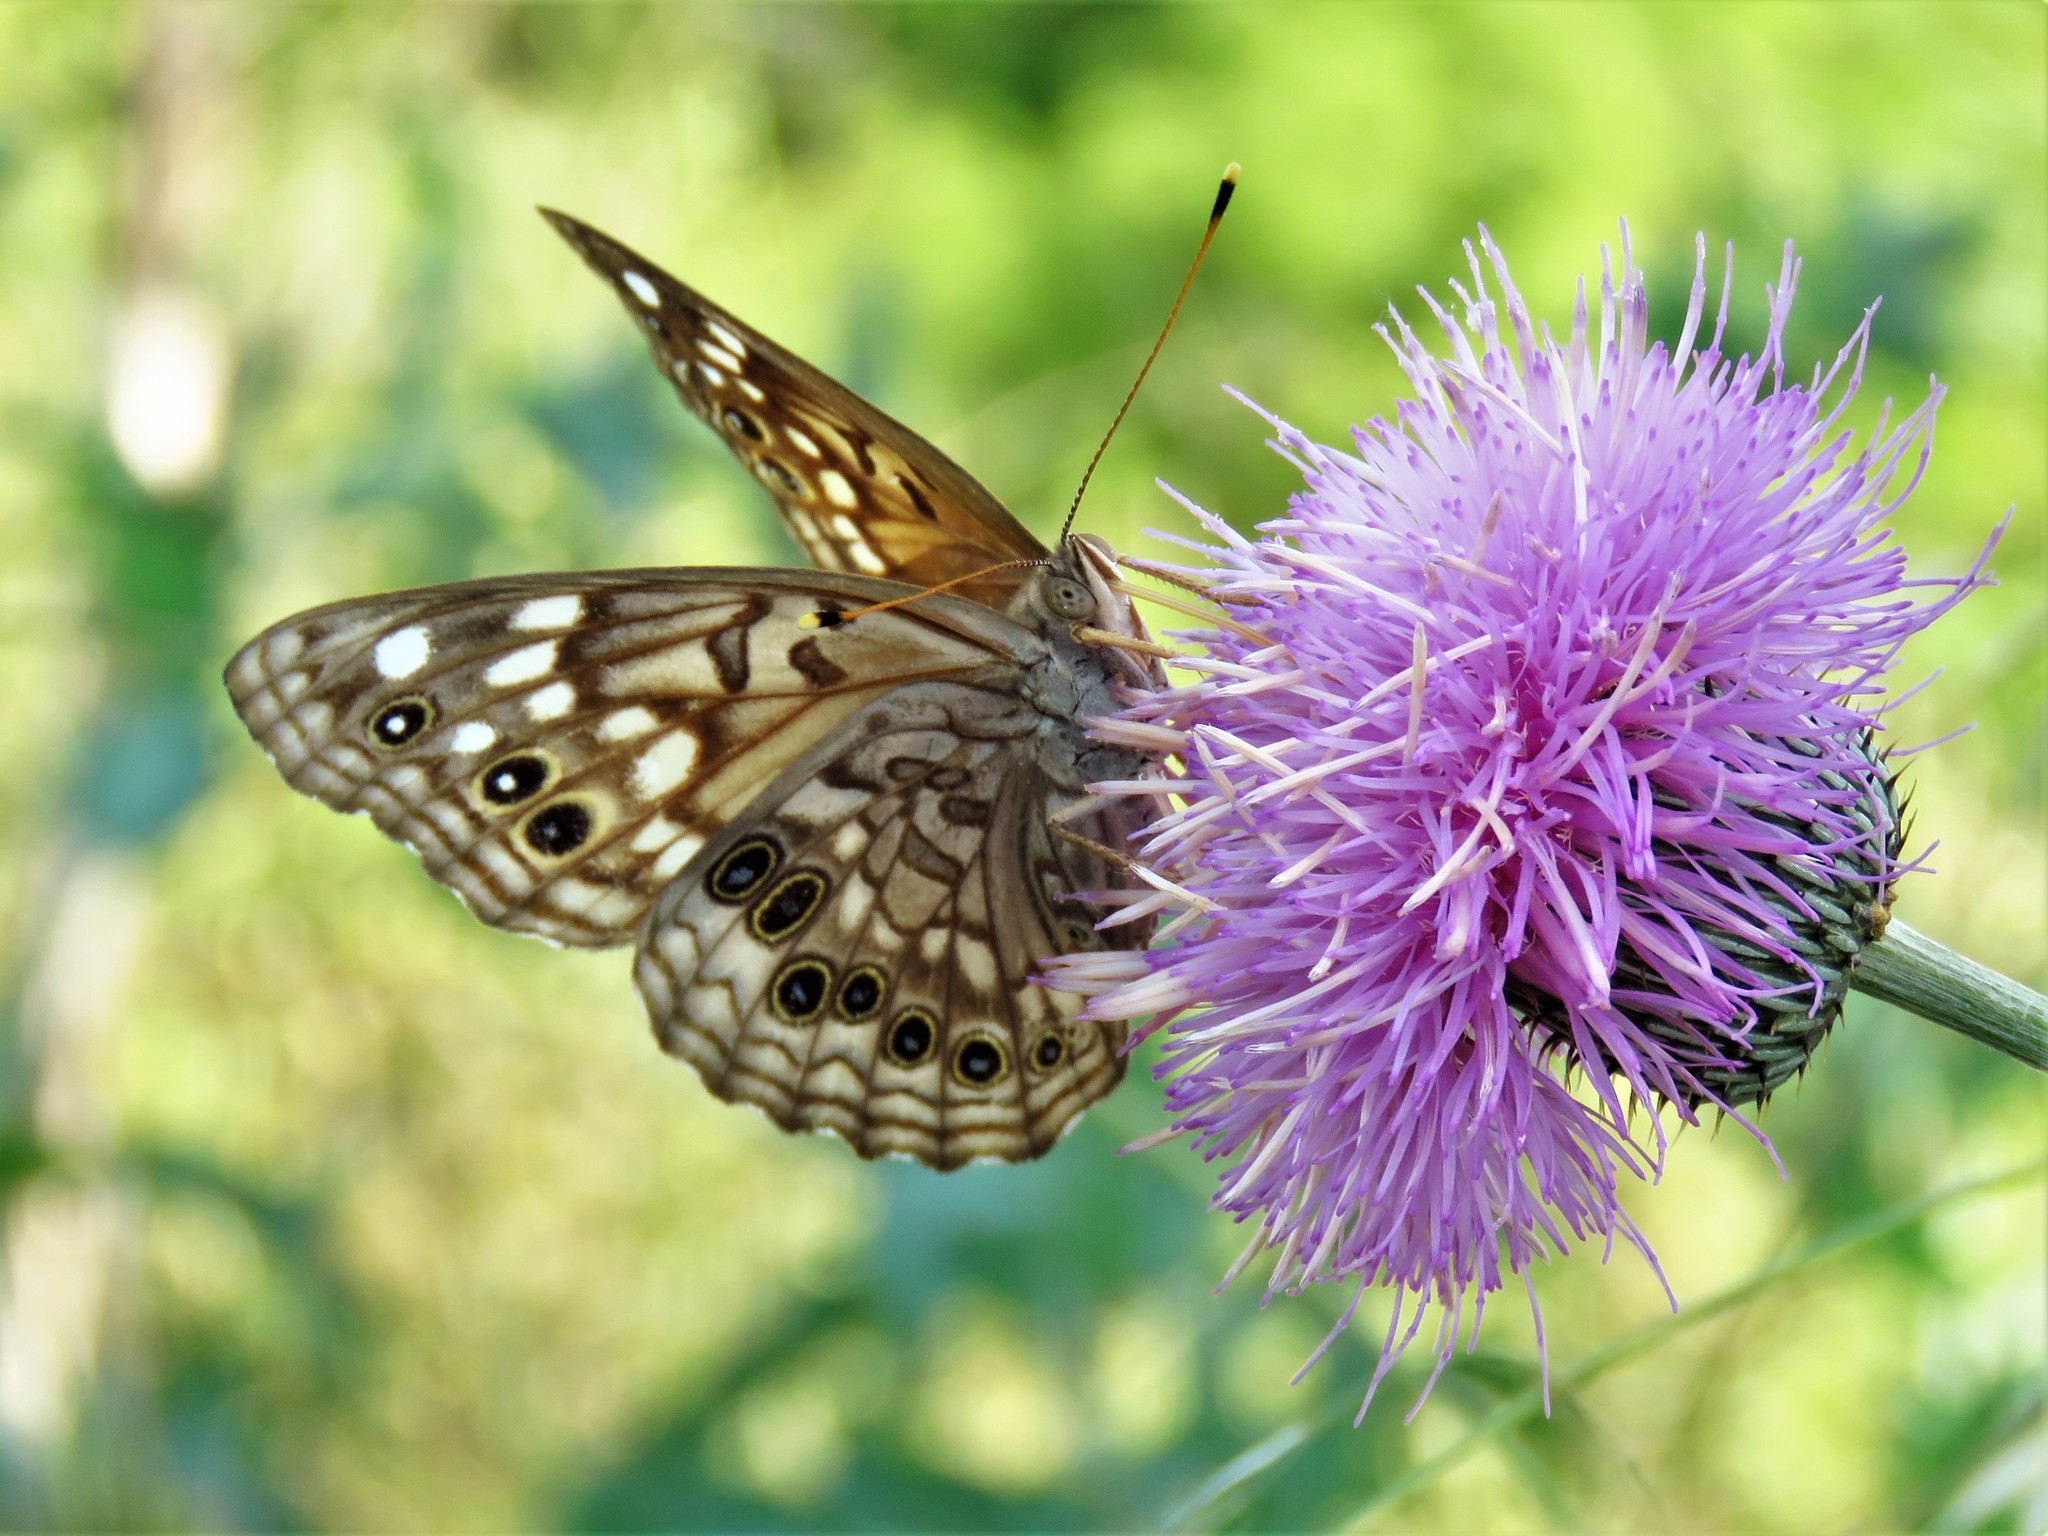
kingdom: Animalia
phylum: Arthropoda
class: Insecta
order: Lepidoptera
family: Nymphalidae
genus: Asterocampa
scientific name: Asterocampa celtis
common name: Hackberry emperor
